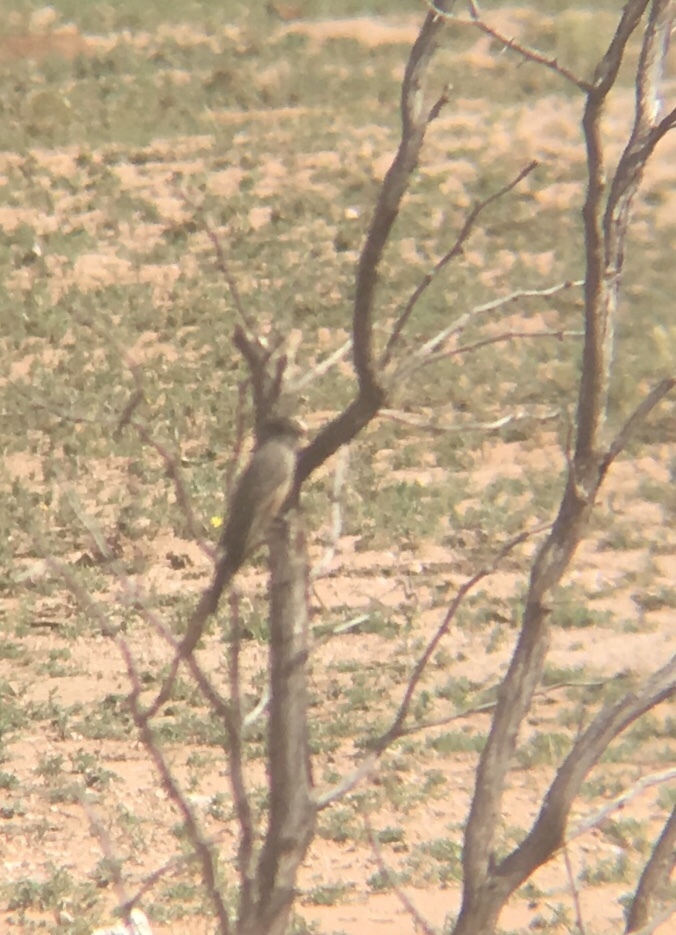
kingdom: Animalia
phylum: Chordata
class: Aves
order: Passeriformes
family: Tyrannidae
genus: Sayornis
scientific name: Sayornis saya
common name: Say's phoebe
